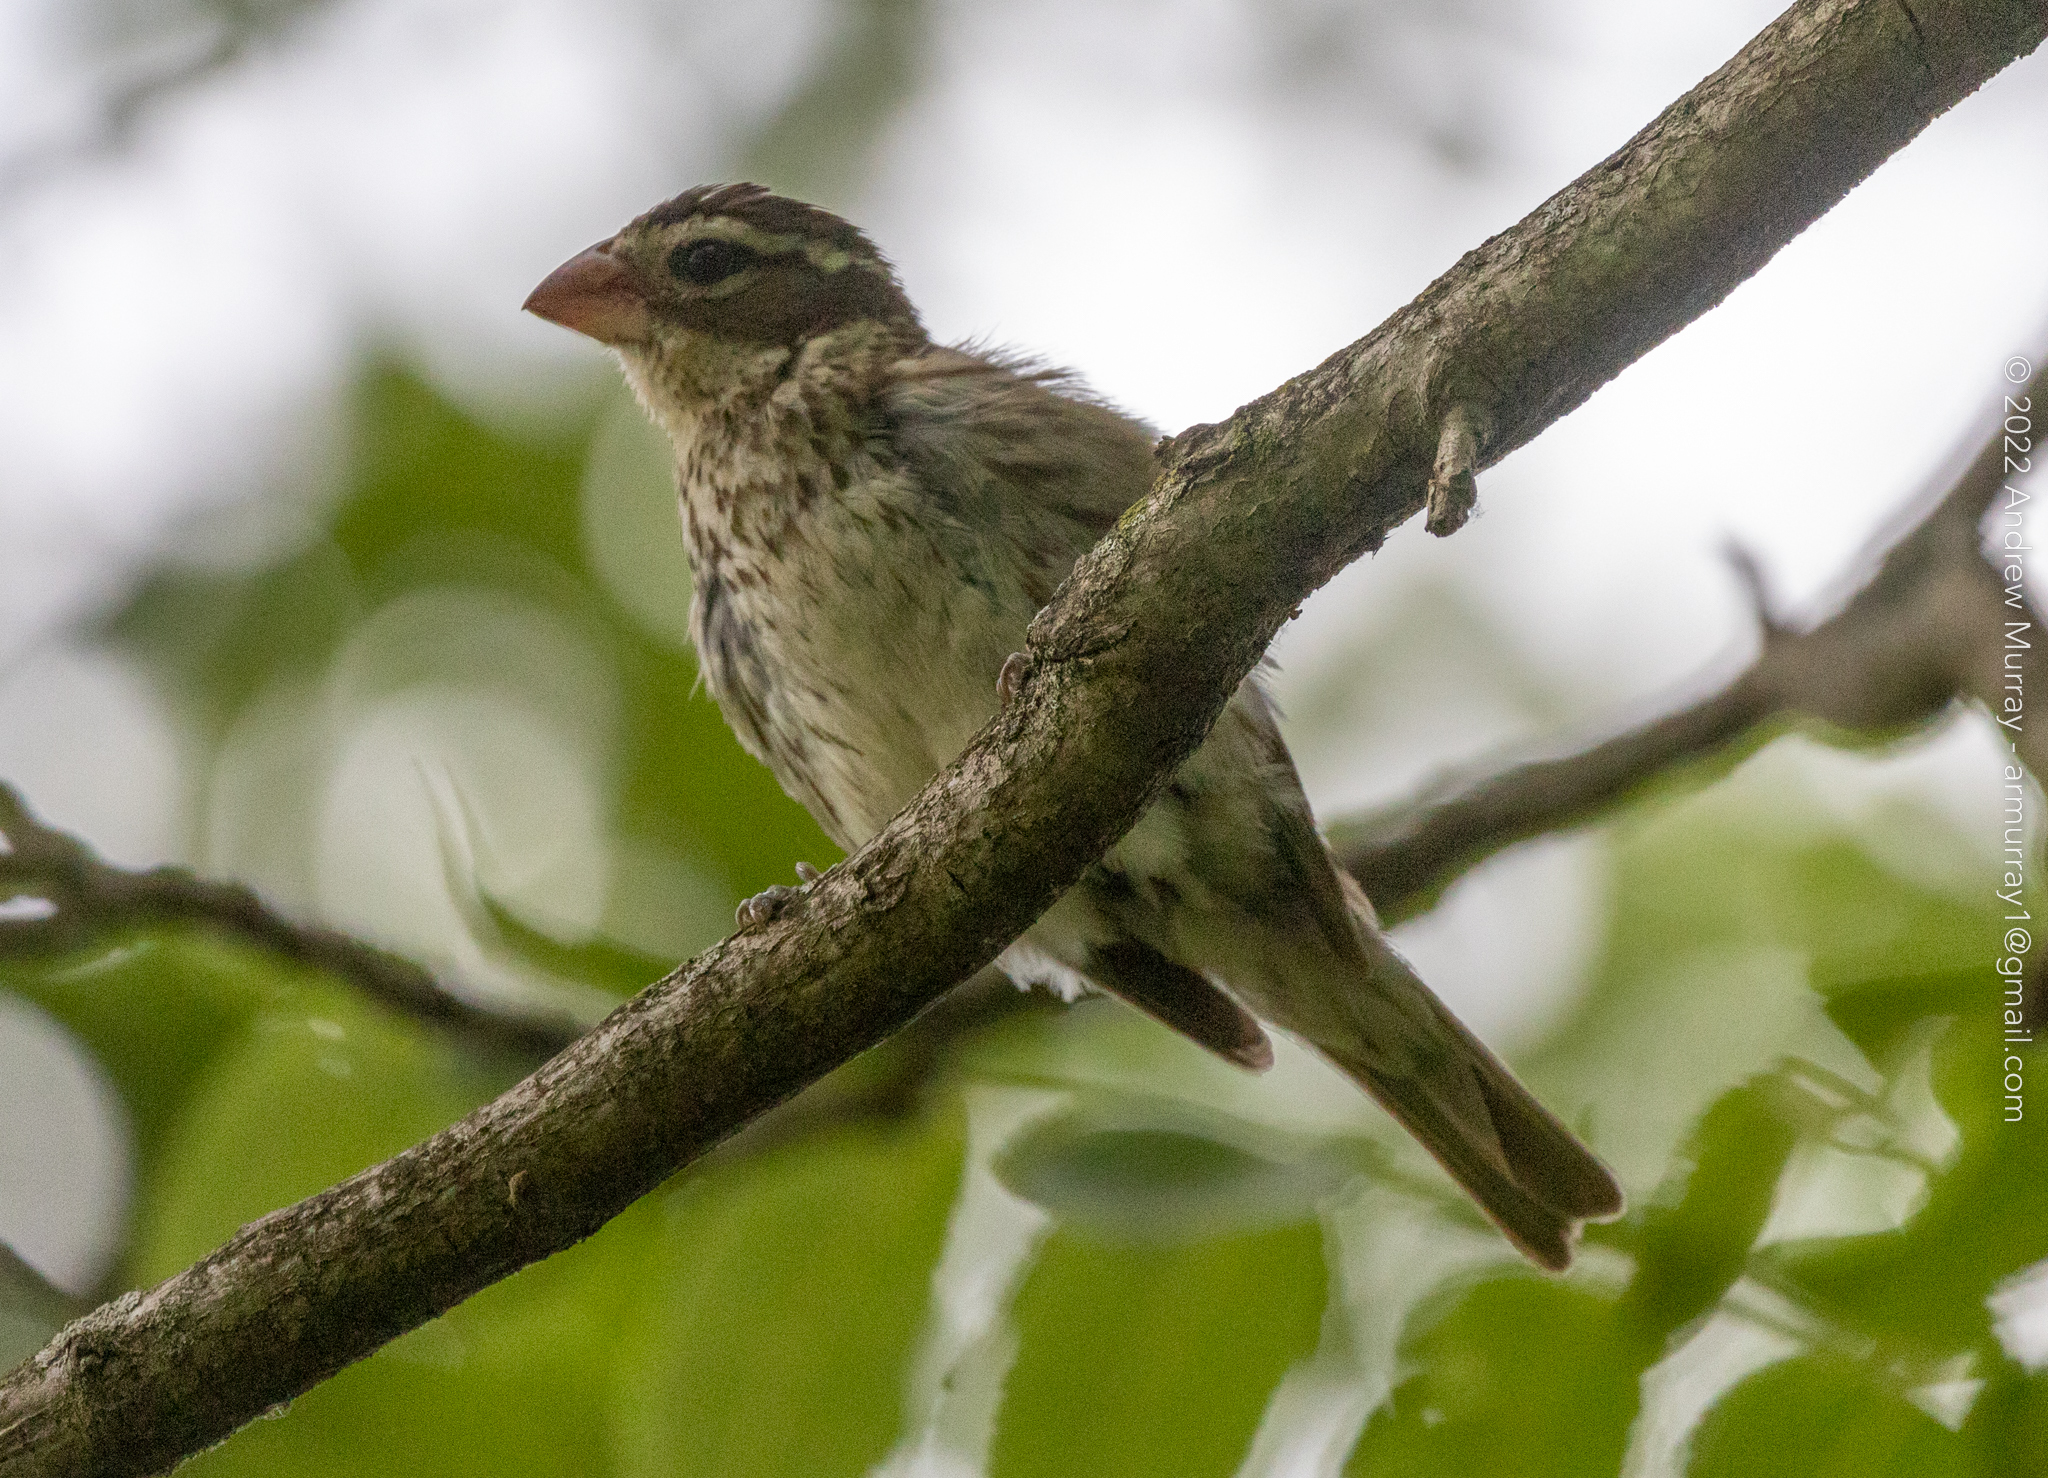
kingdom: Animalia
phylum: Chordata
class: Aves
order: Passeriformes
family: Cardinalidae
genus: Pheucticus
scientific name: Pheucticus ludovicianus
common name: Rose-breasted grosbeak
